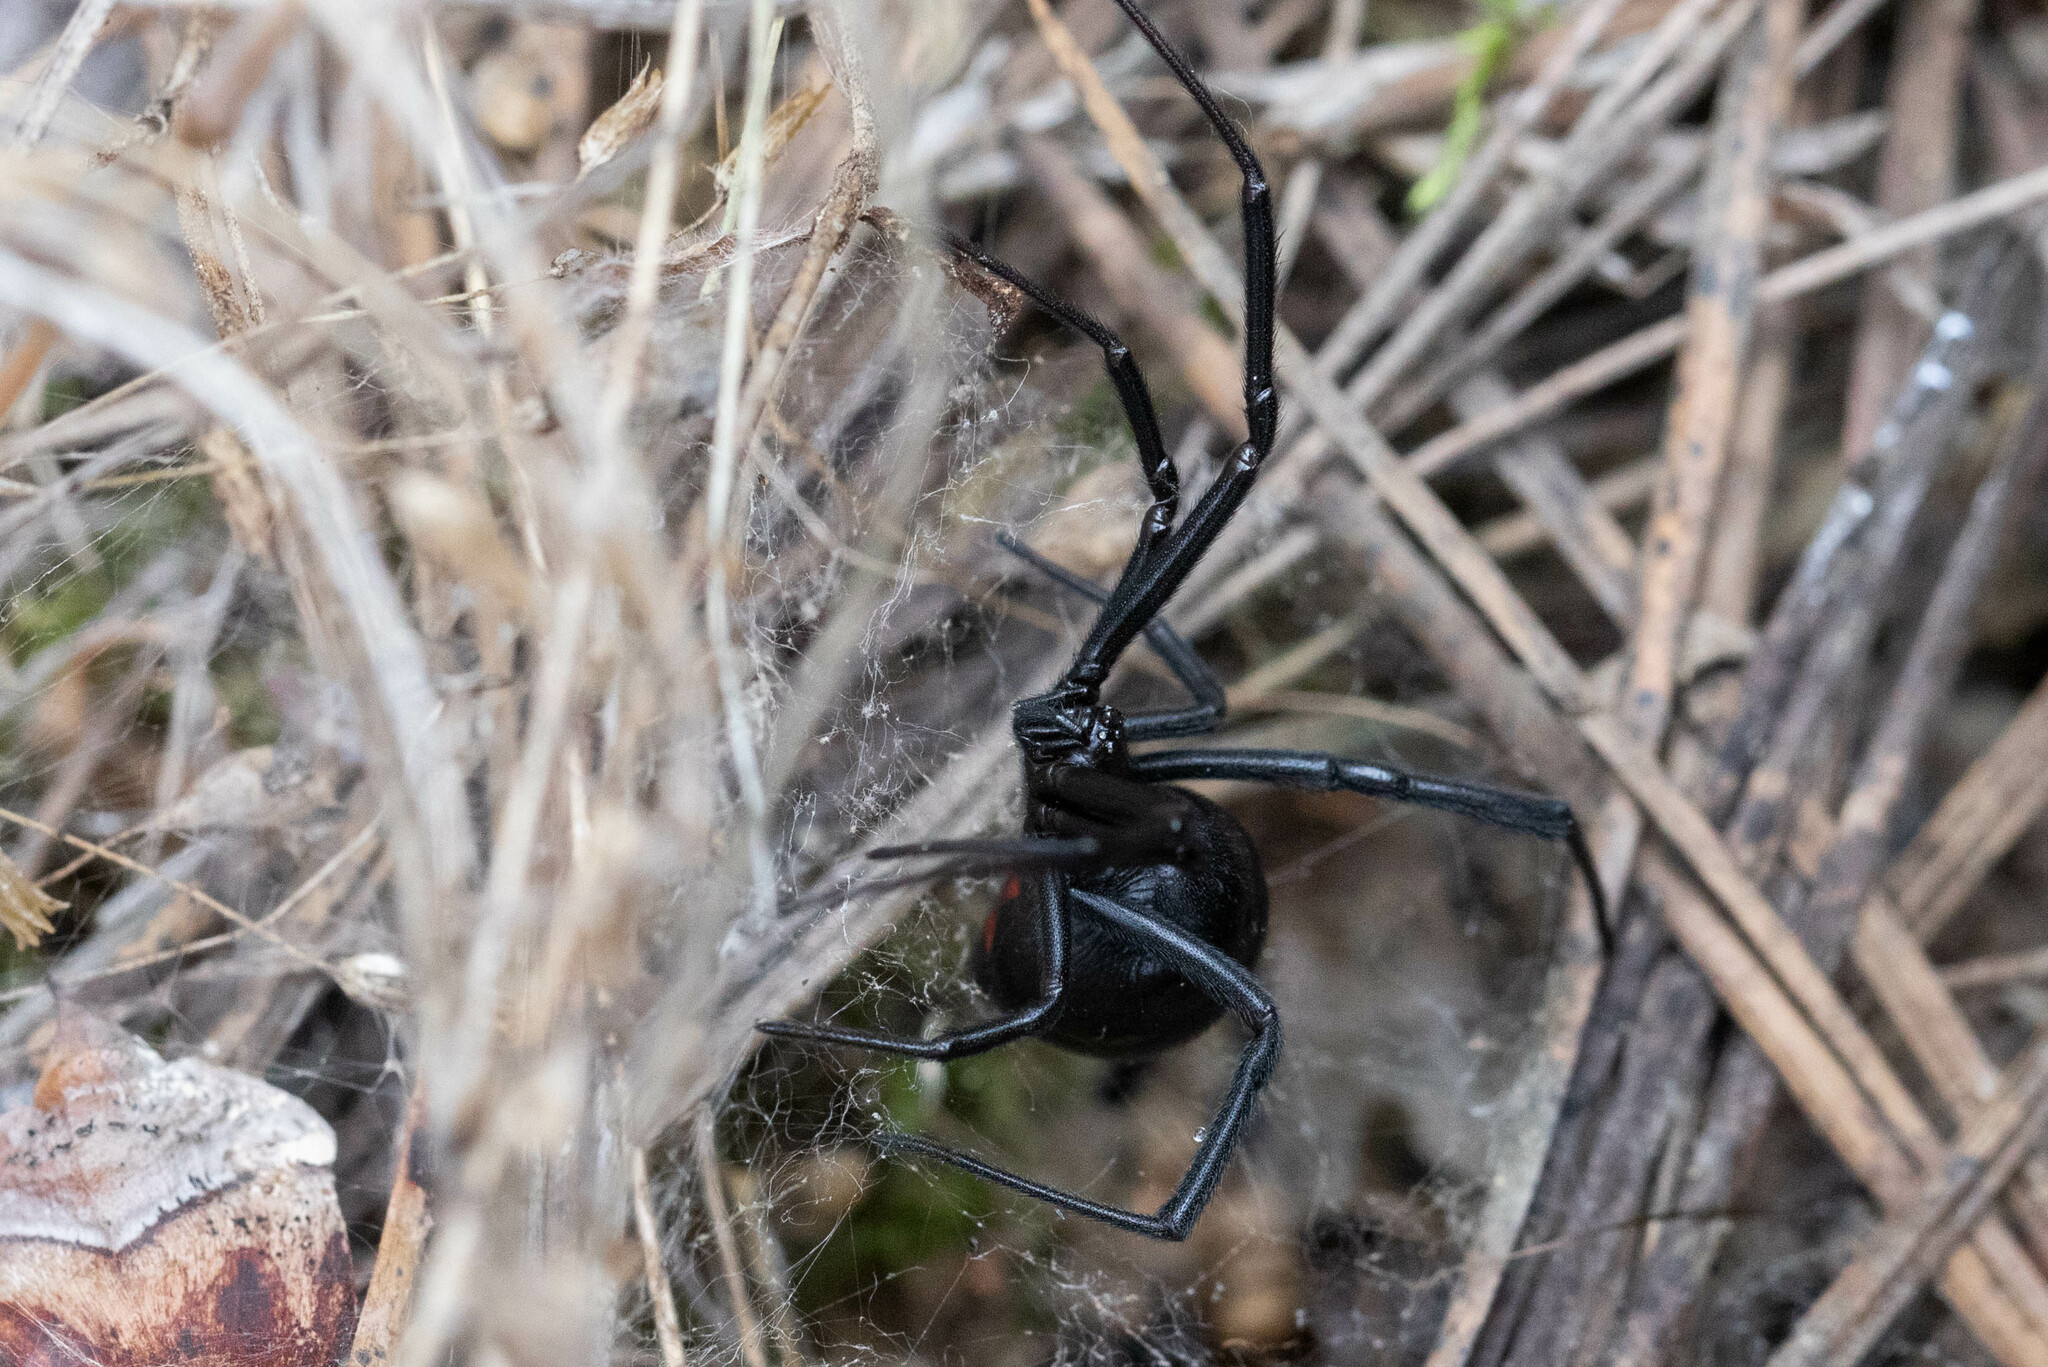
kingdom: Animalia
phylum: Arthropoda
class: Arachnida
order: Araneae
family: Theridiidae
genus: Latrodectus
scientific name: Latrodectus hesperus
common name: Western black widow
